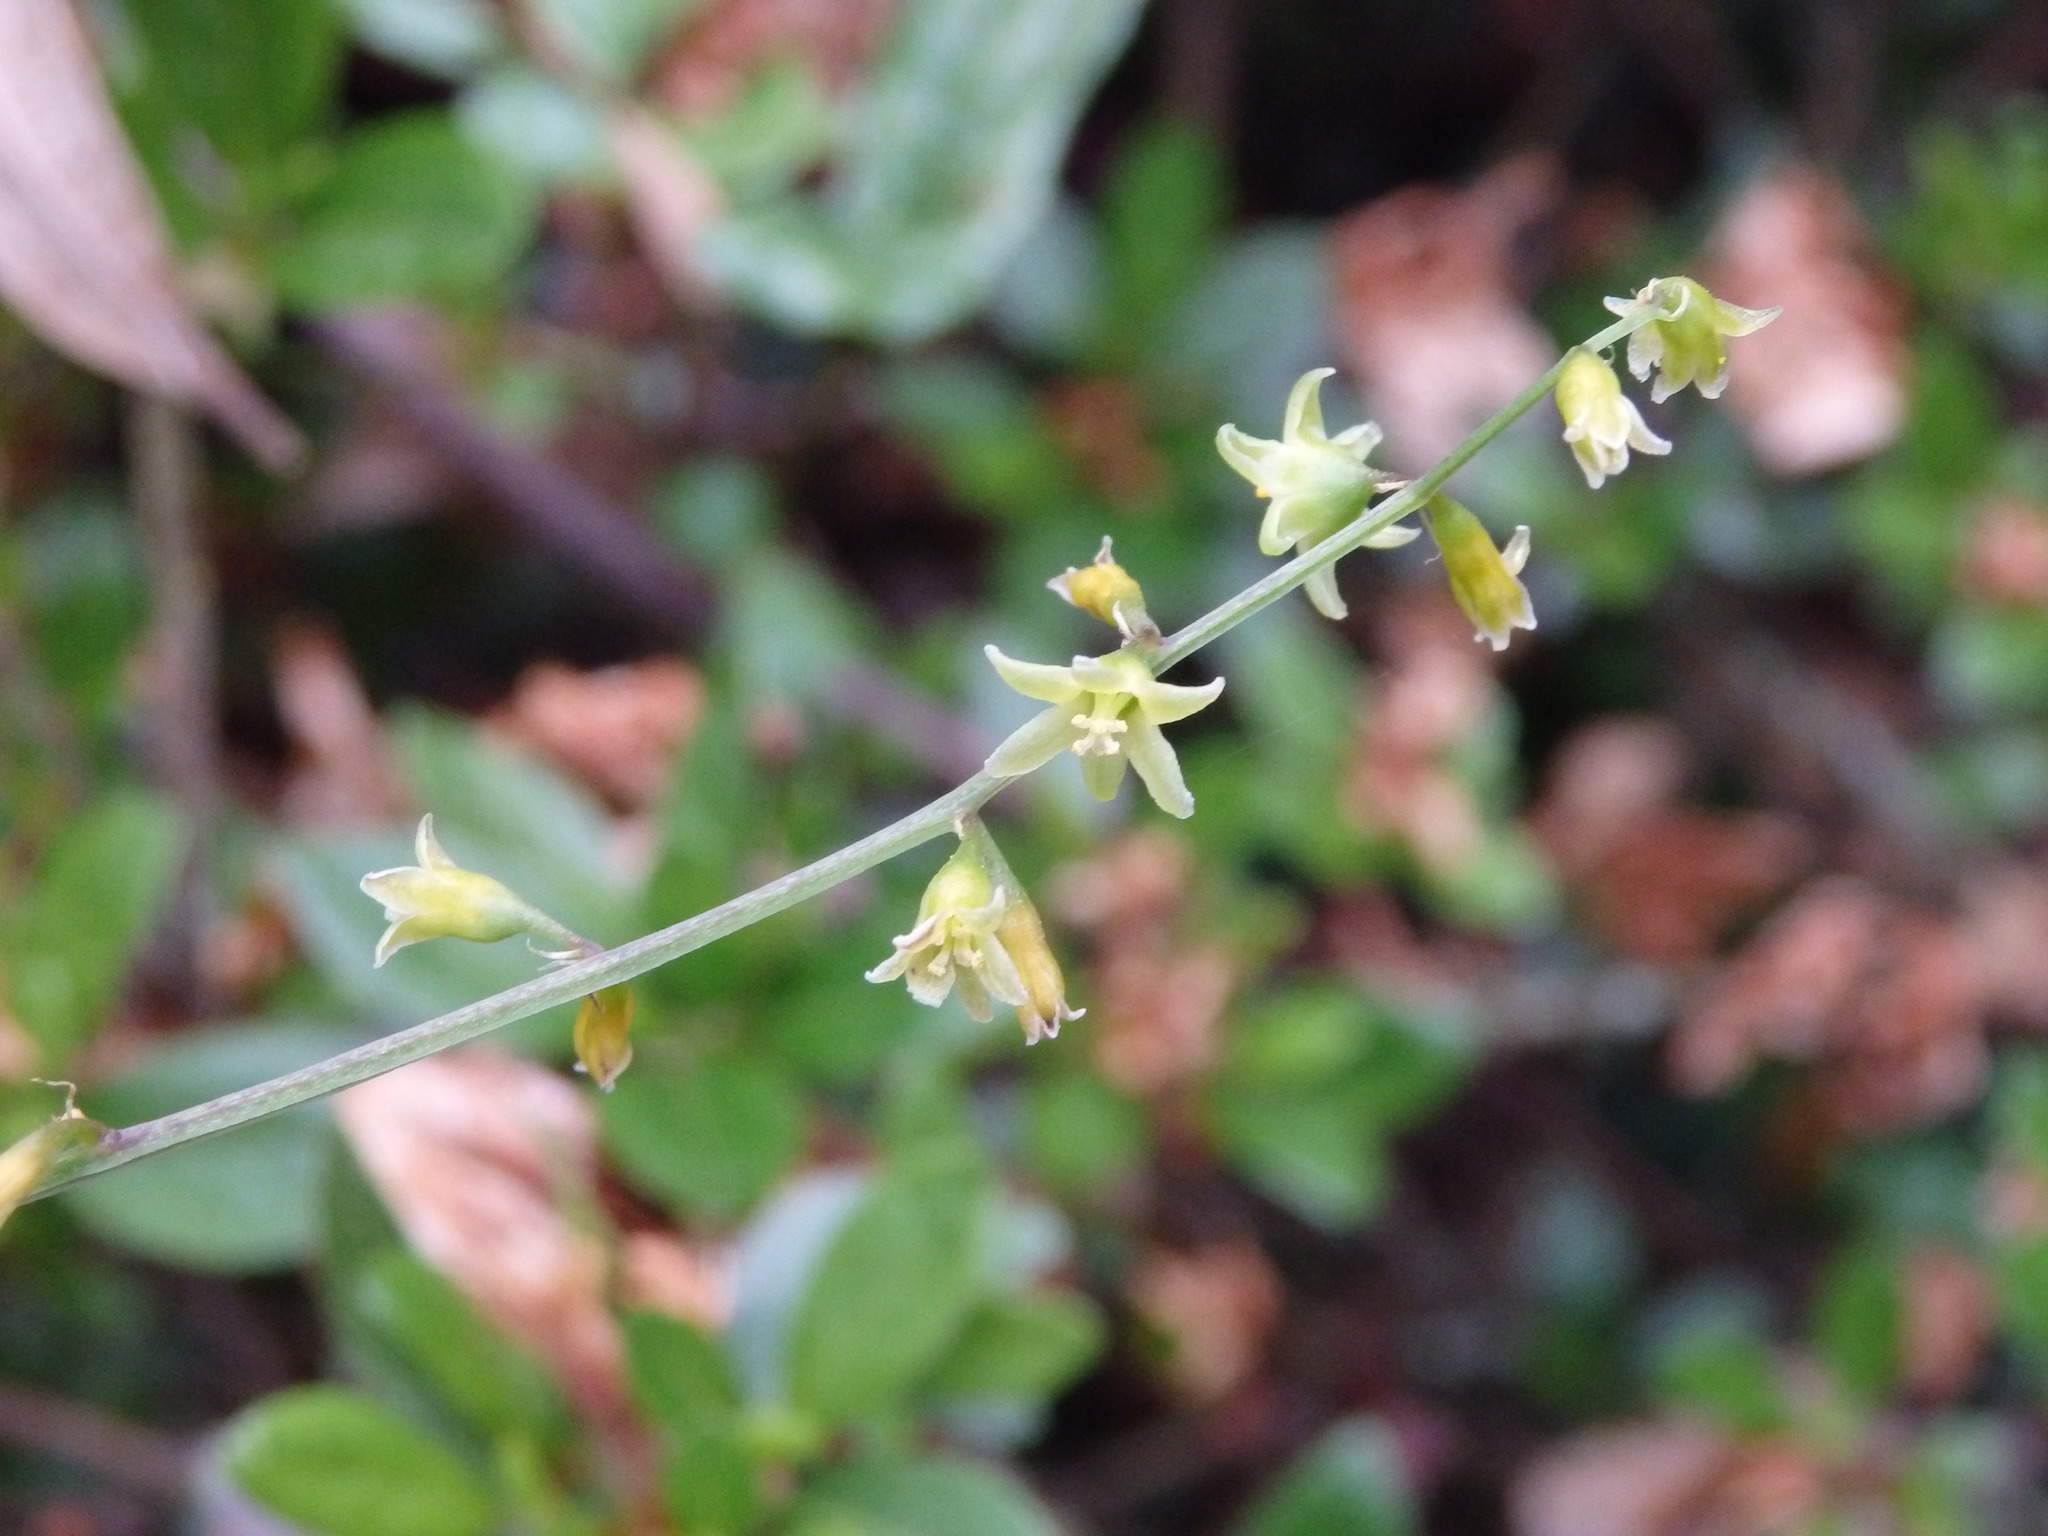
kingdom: Plantae
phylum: Tracheophyta
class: Liliopsida
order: Dioscoreales
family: Dioscoreaceae
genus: Dioscorea
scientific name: Dioscorea communis
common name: Black-bindweed
